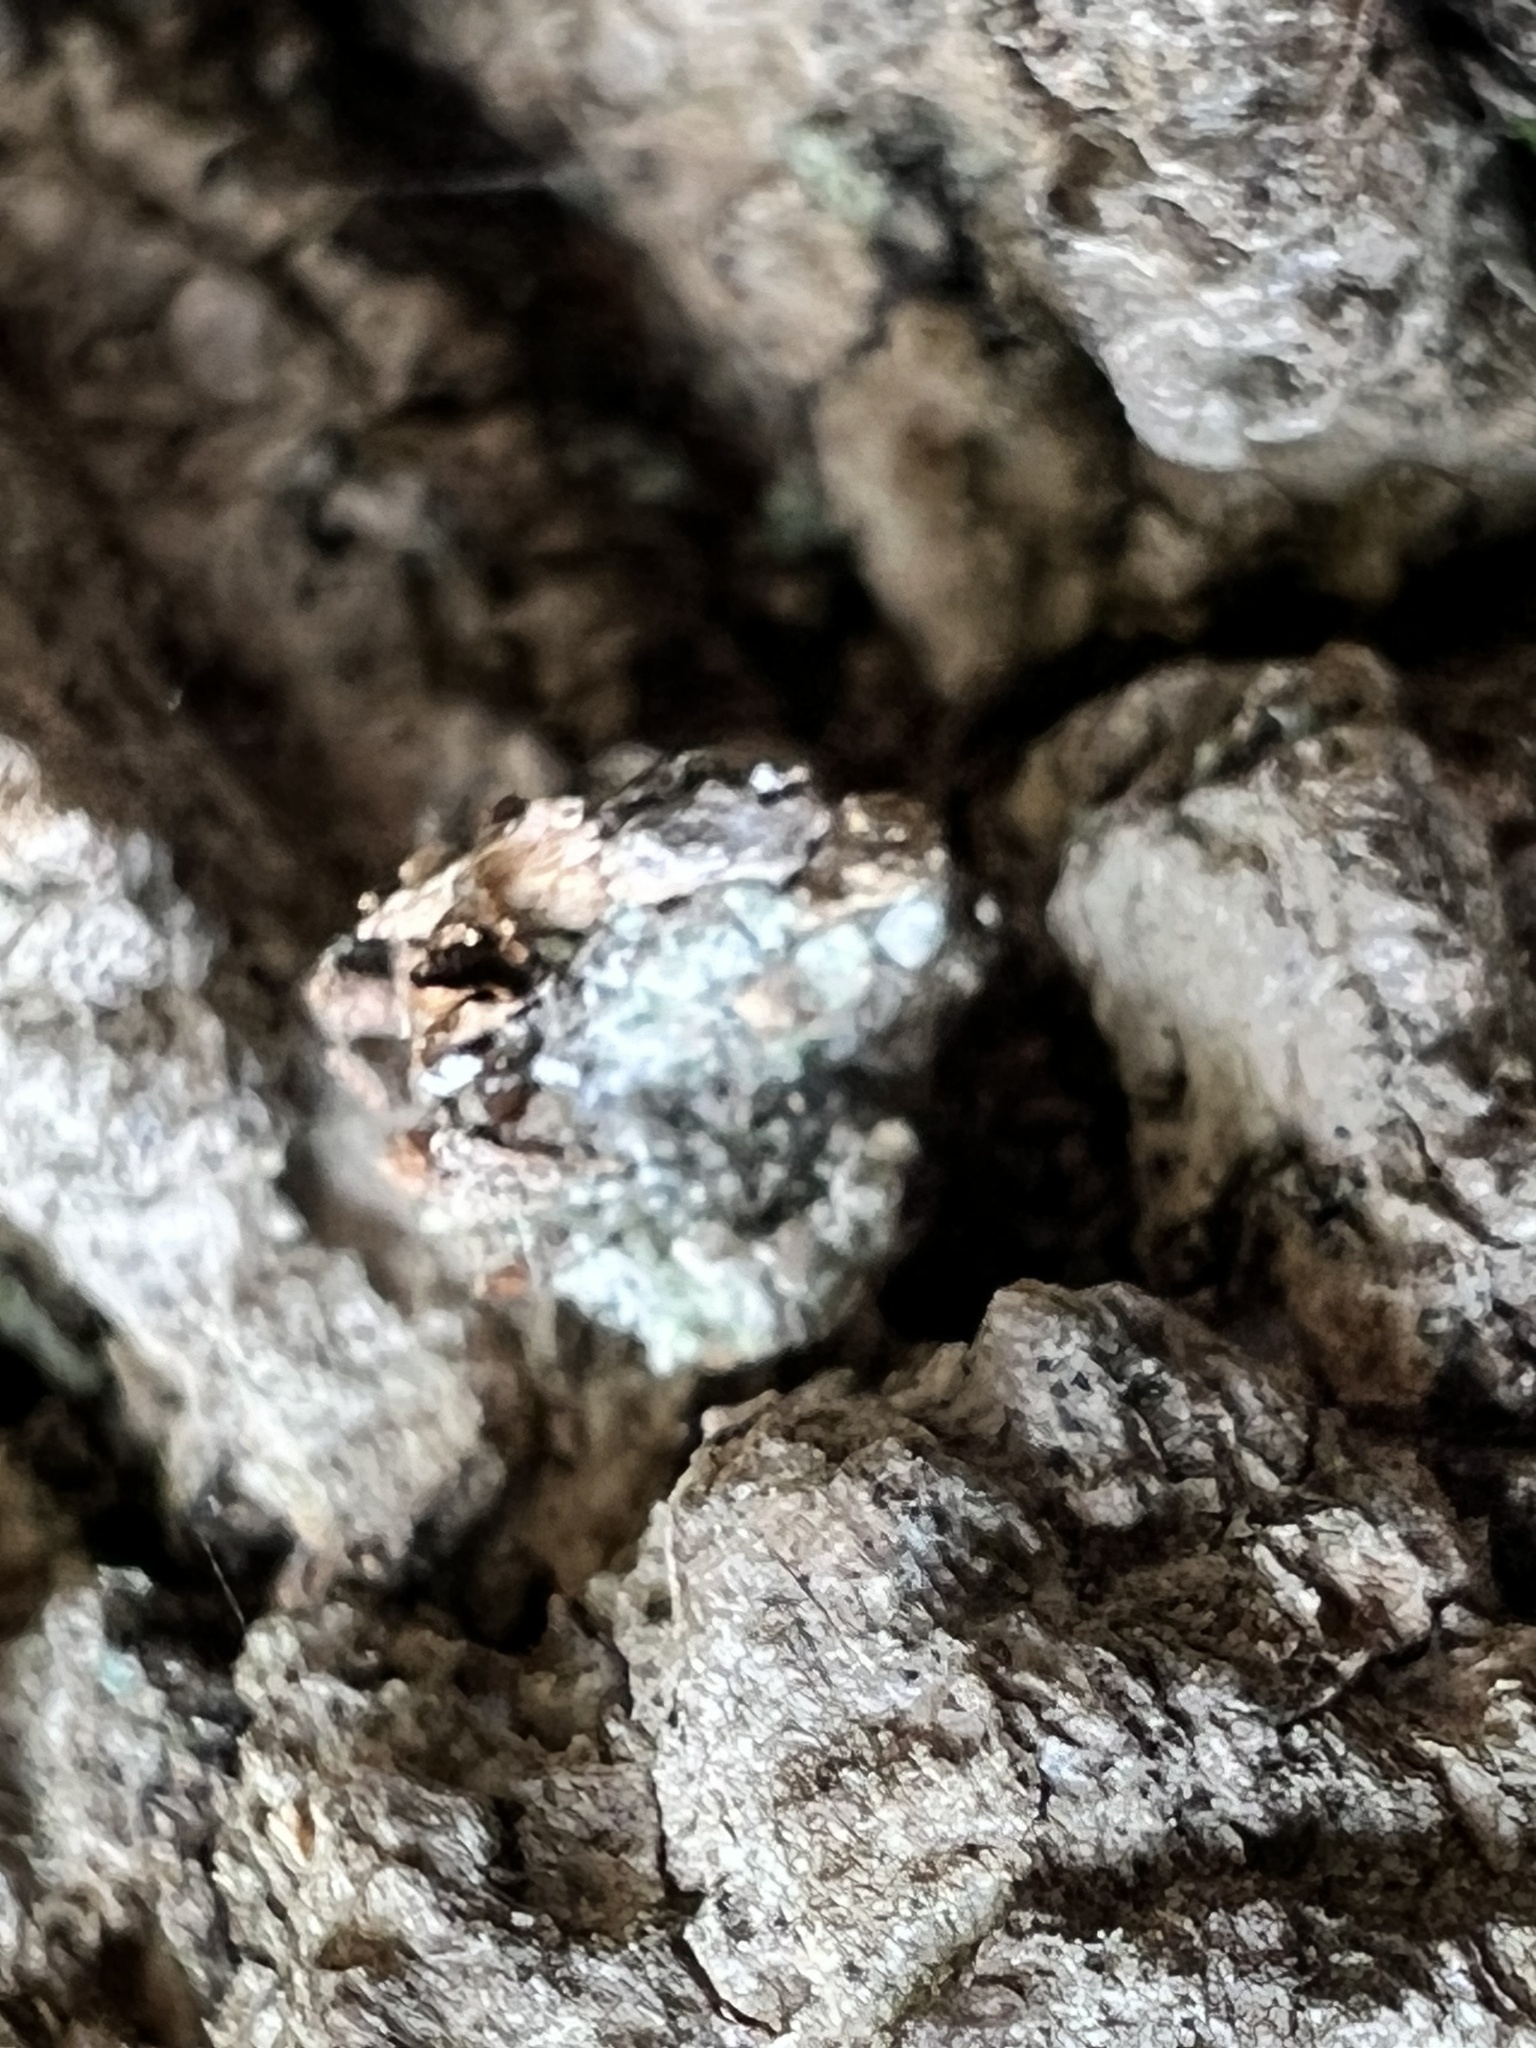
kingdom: Animalia
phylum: Arthropoda
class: Insecta
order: Neuroptera
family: Chrysopidae
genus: Leucochrysa
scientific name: Leucochrysa pavida
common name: Lichen-carrying green lacewing
